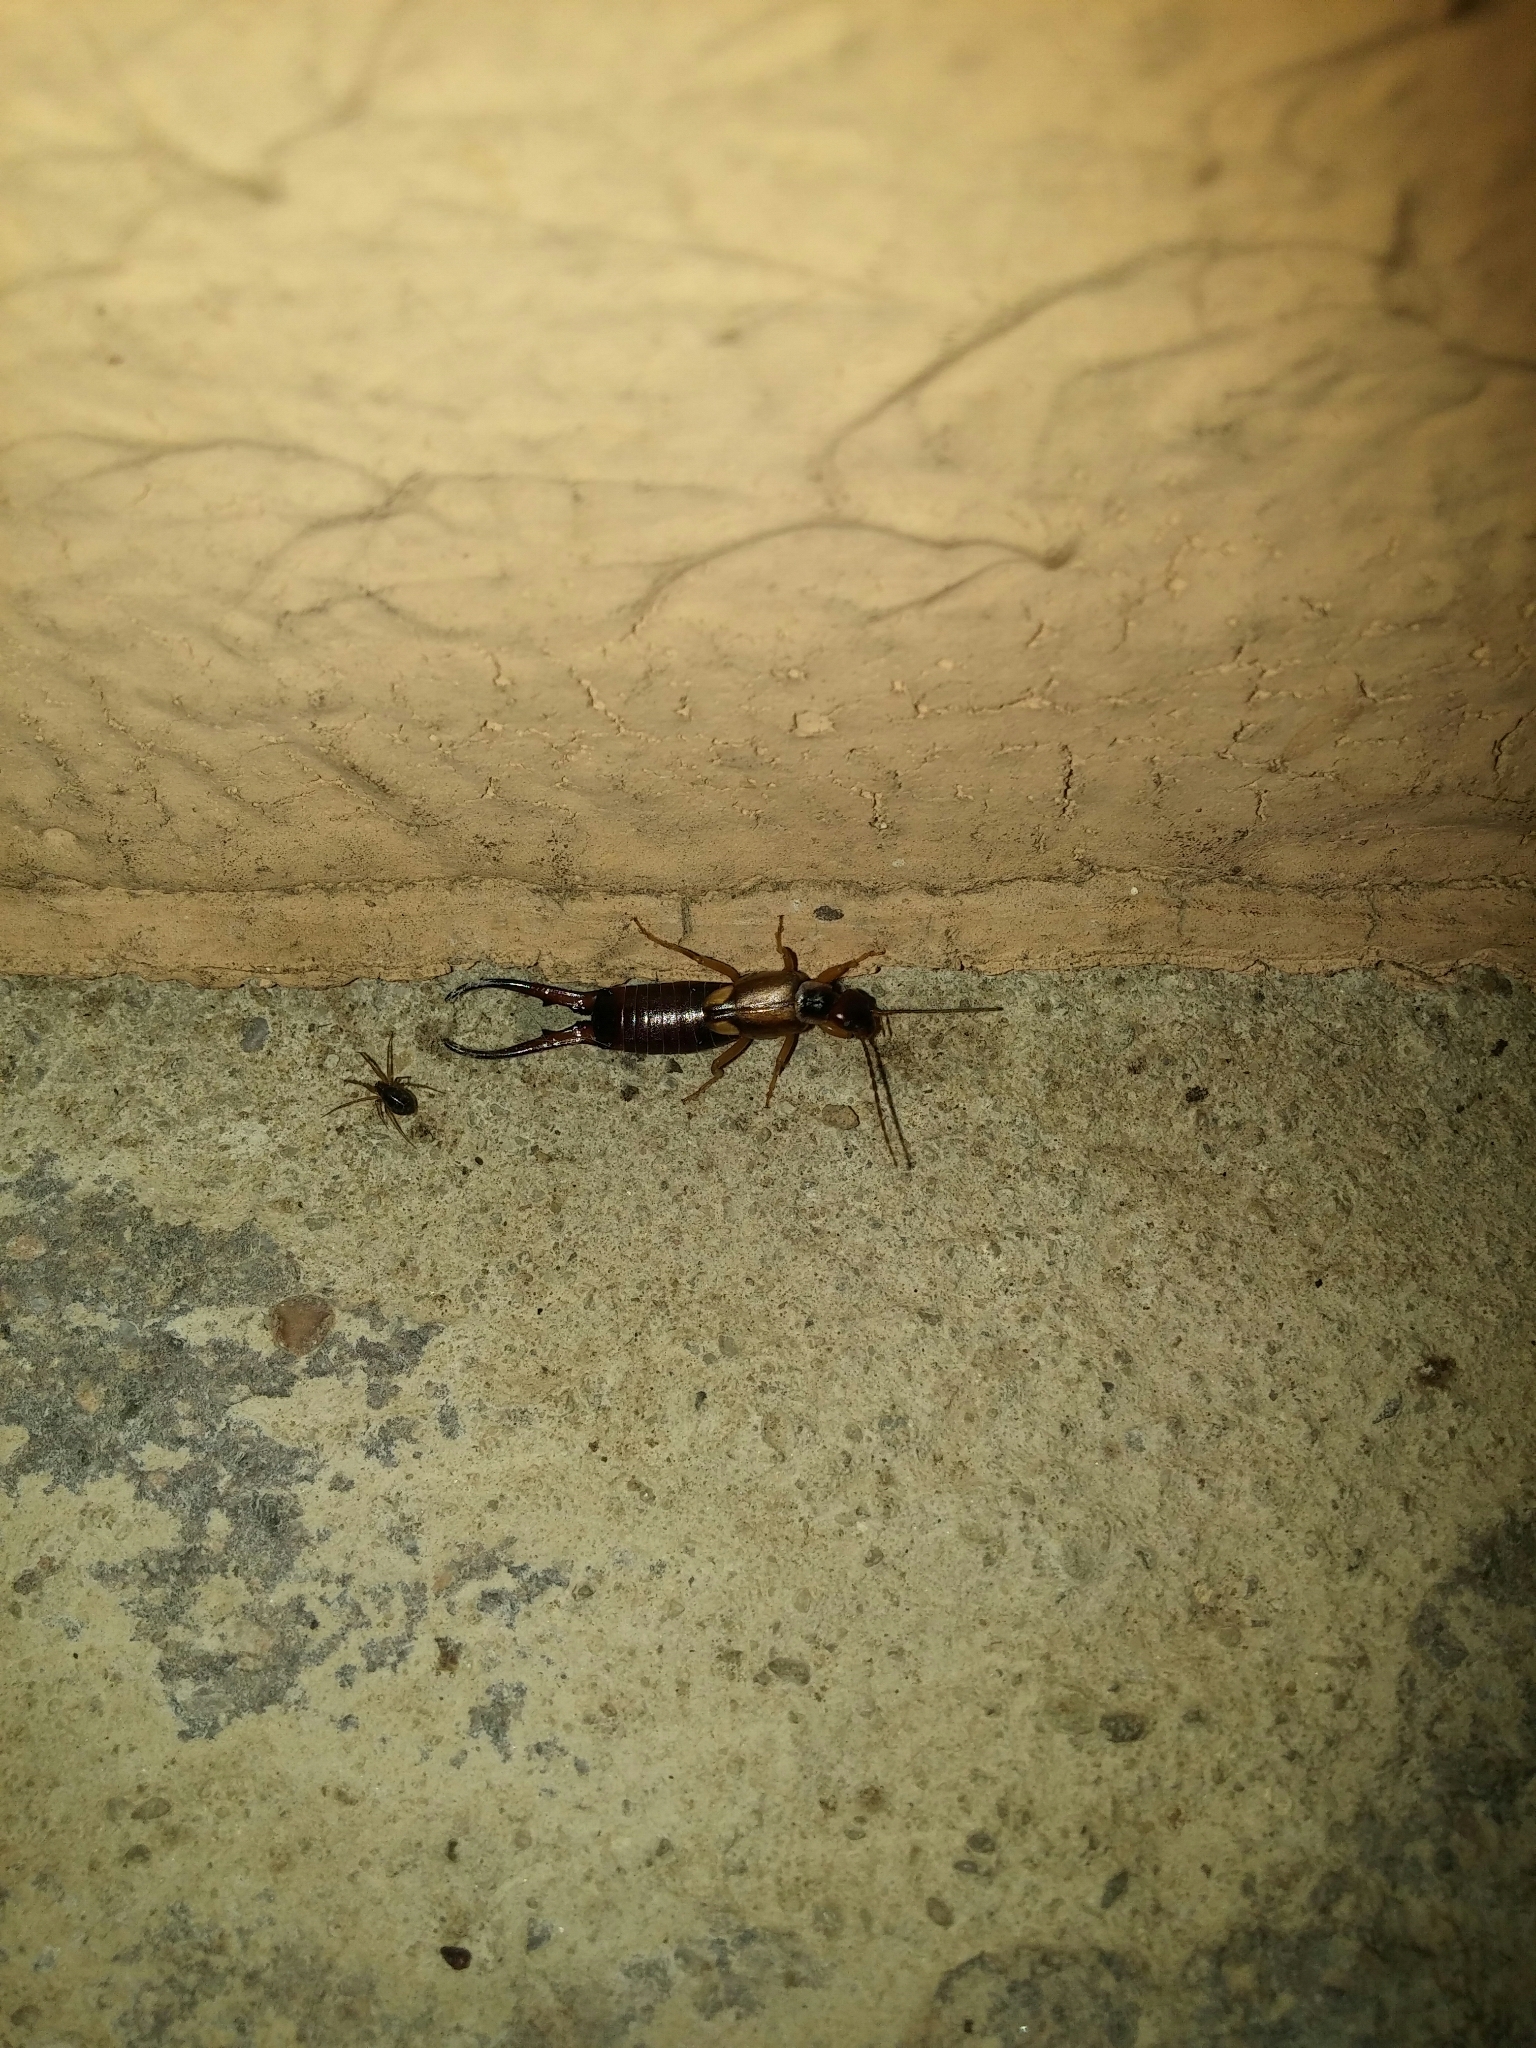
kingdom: Animalia
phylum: Arthropoda
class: Insecta
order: Dermaptera
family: Forficulidae
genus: Forficula
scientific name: Forficula
